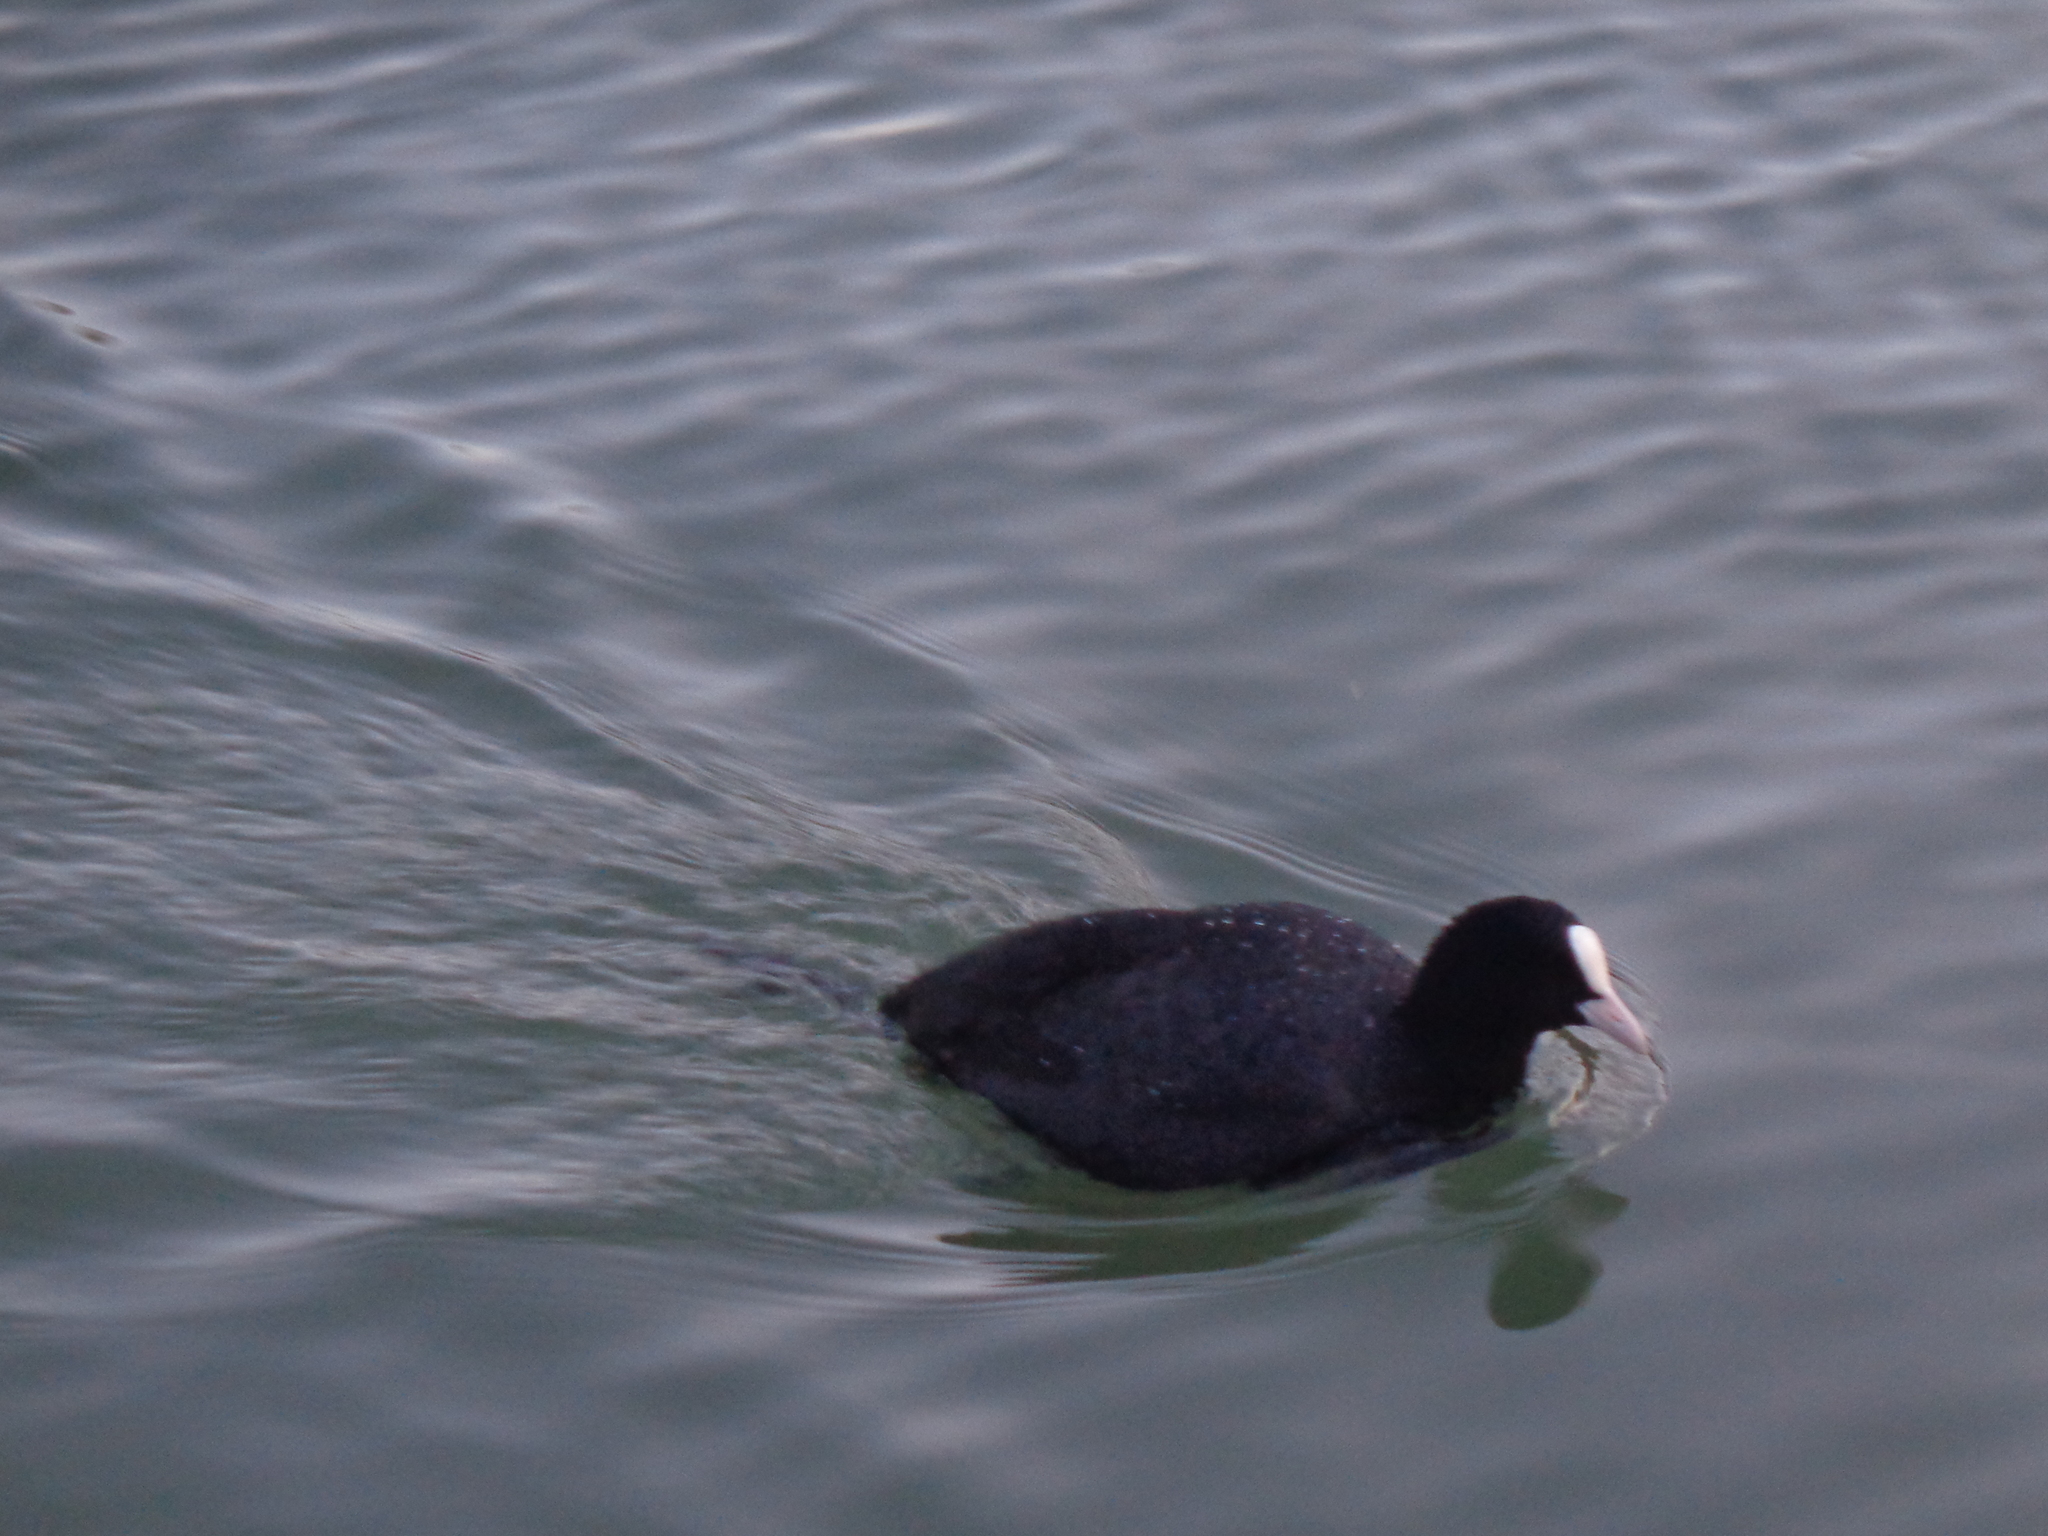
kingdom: Animalia
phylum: Chordata
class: Aves
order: Gruiformes
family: Rallidae
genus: Fulica
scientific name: Fulica atra
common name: Eurasian coot
